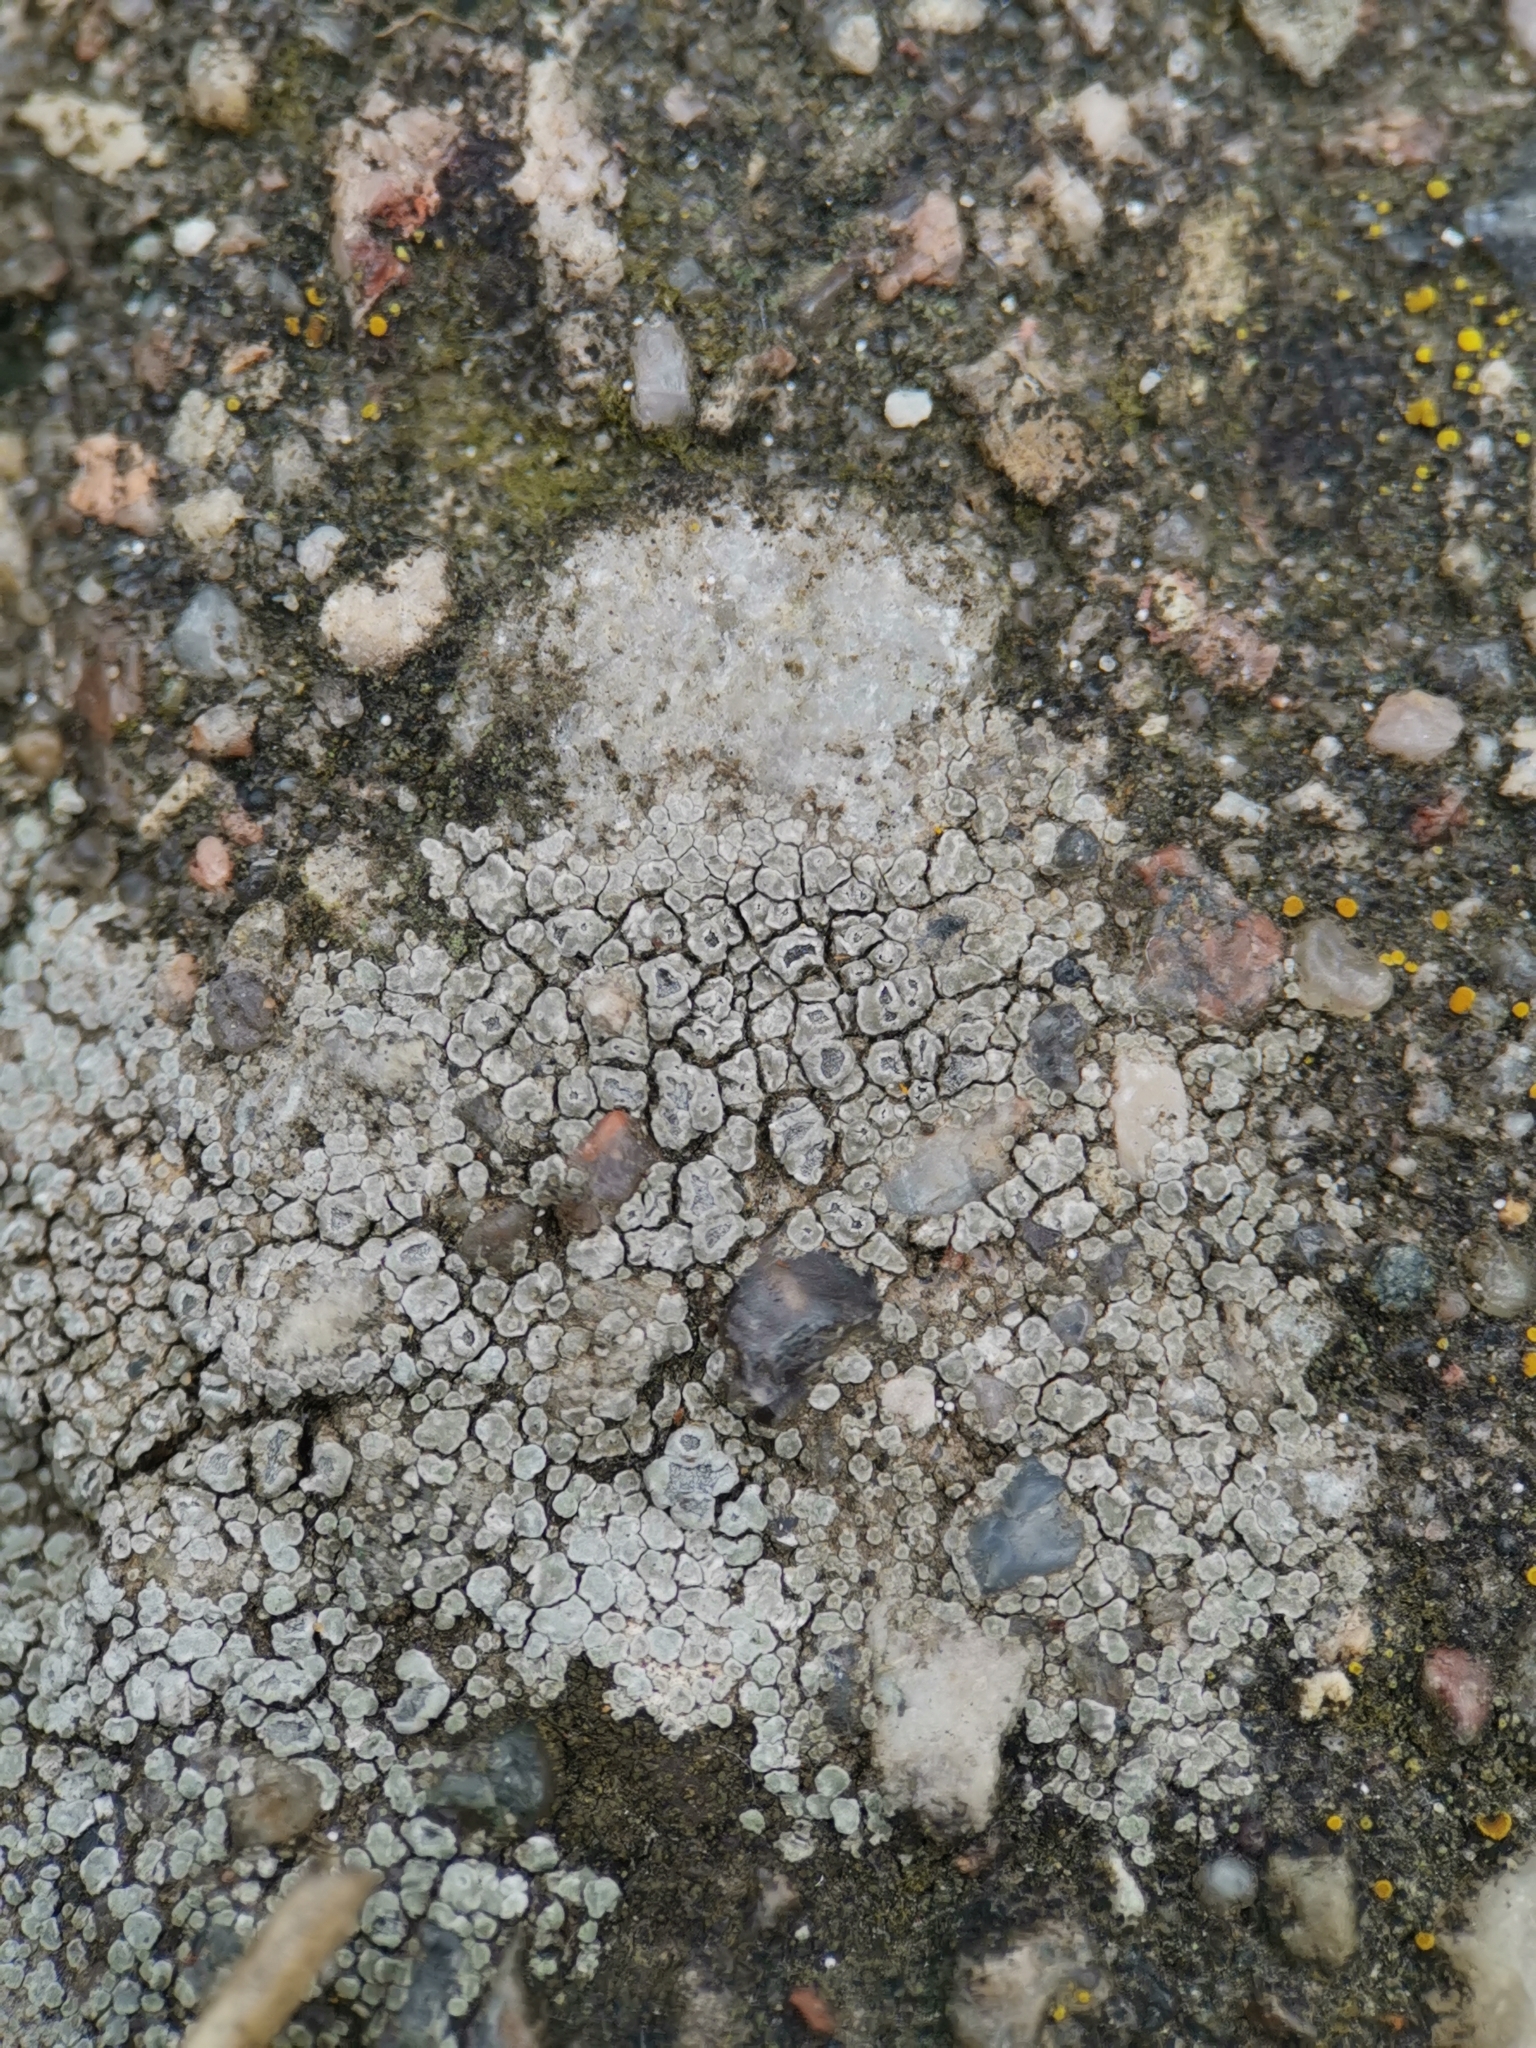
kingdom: Fungi
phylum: Ascomycota
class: Lecanoromycetes
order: Pertusariales
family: Megasporaceae
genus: Circinaria
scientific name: Circinaria contorta
